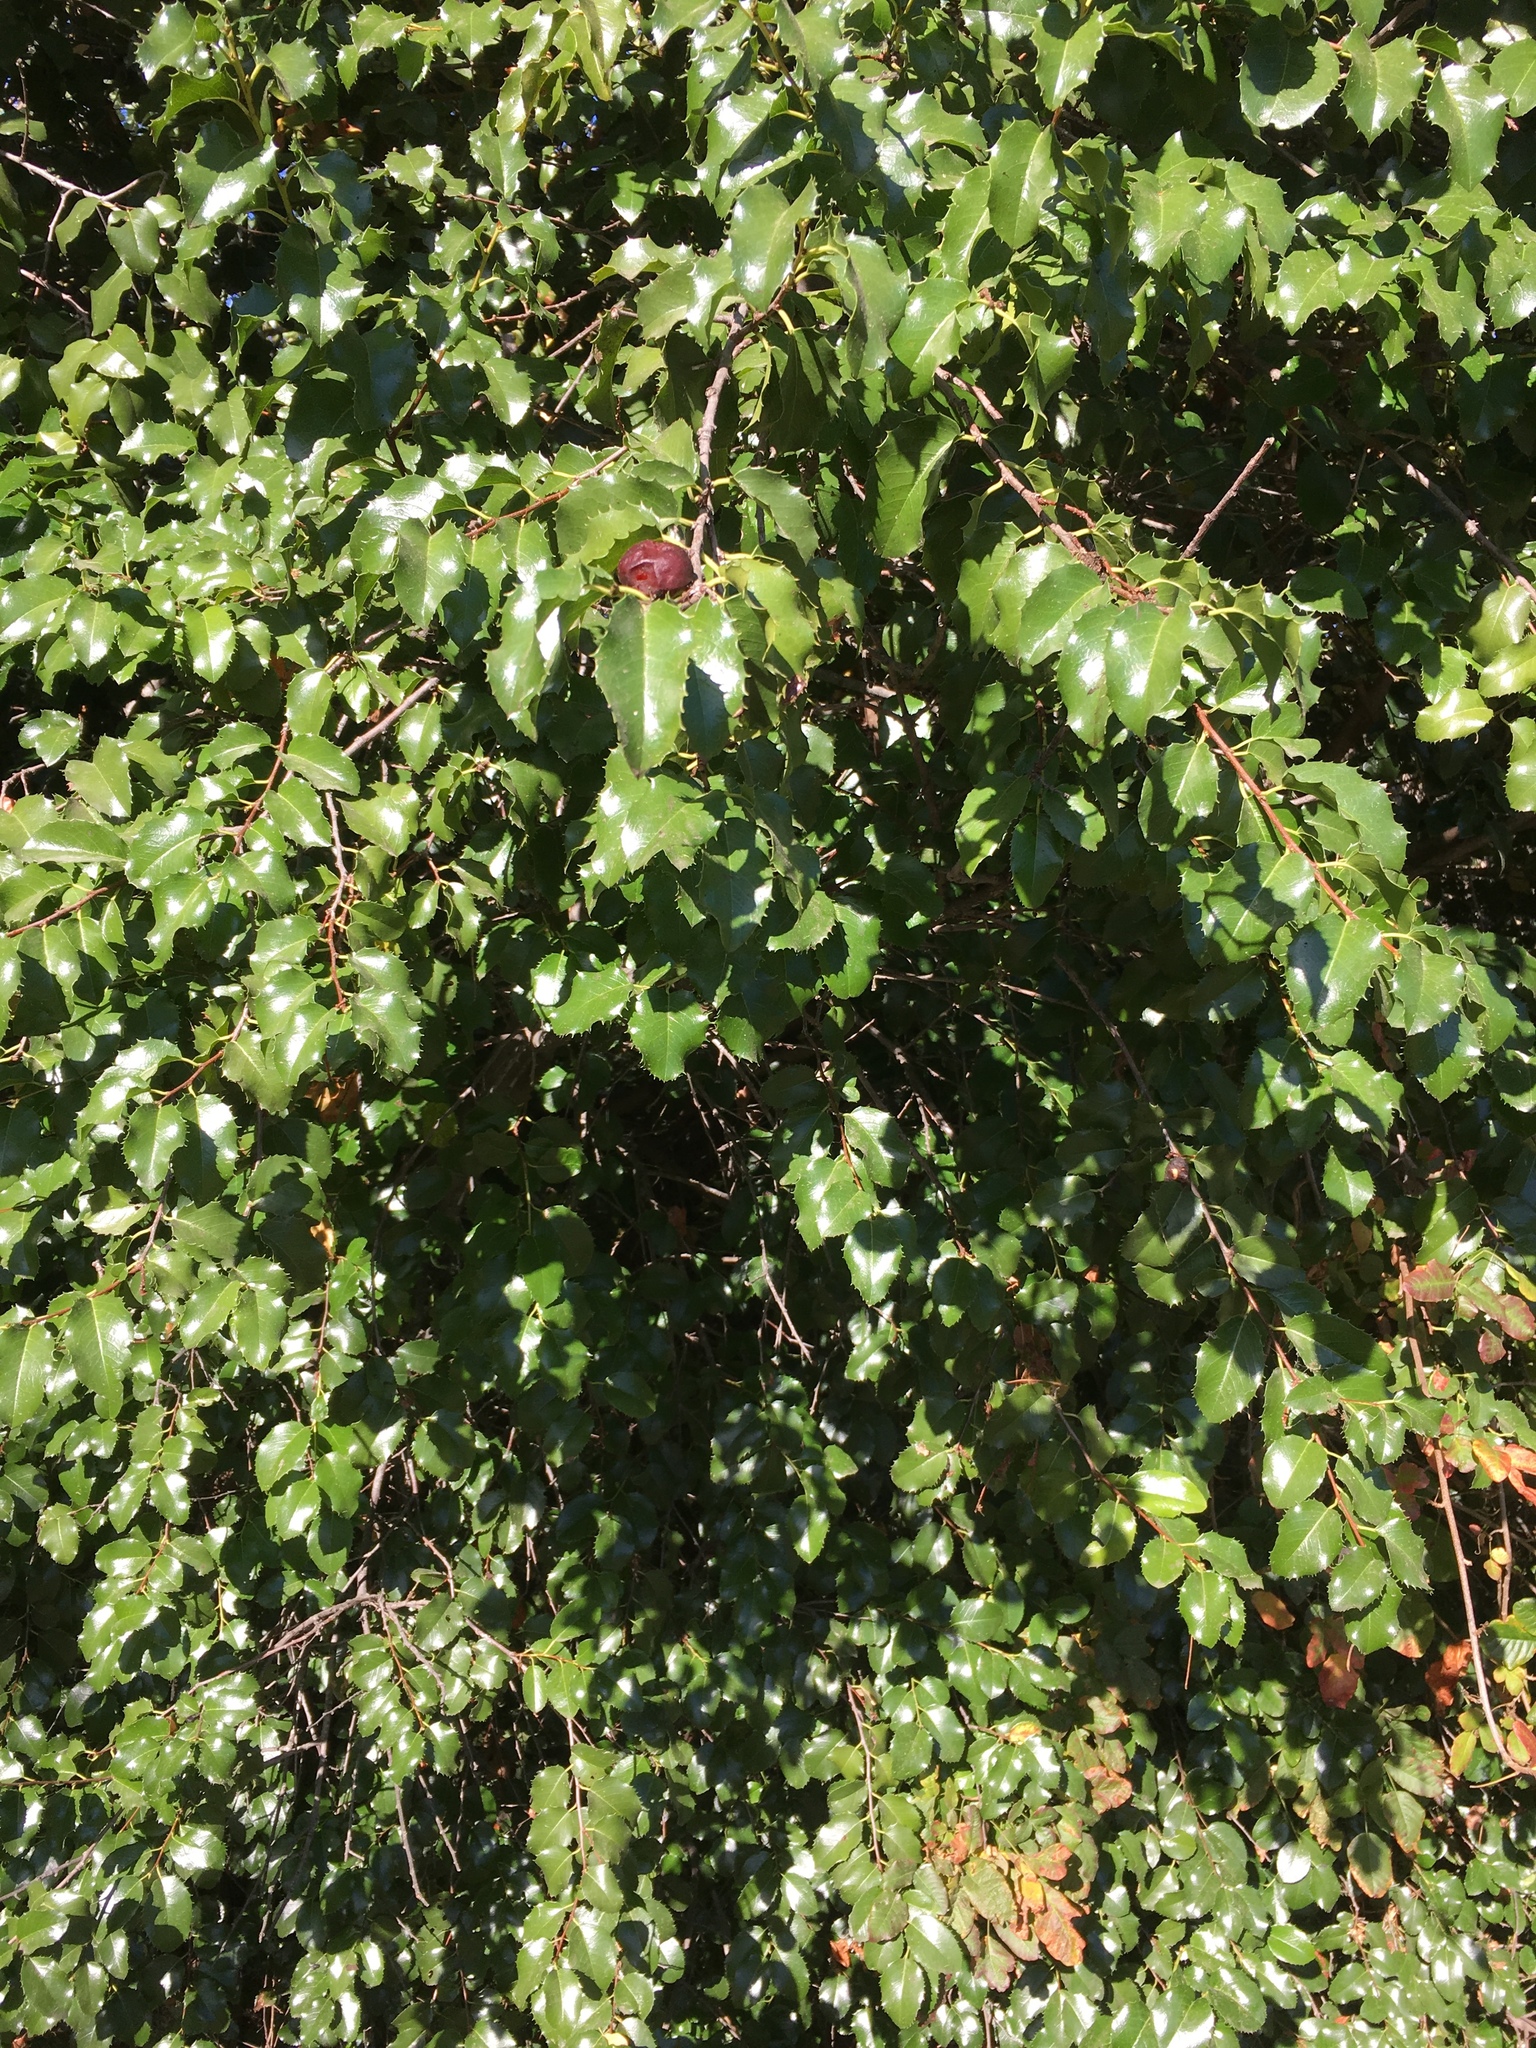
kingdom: Plantae
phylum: Tracheophyta
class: Magnoliopsida
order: Rosales
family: Rosaceae
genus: Prunus
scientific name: Prunus ilicifolia
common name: Hollyleaf cherry
